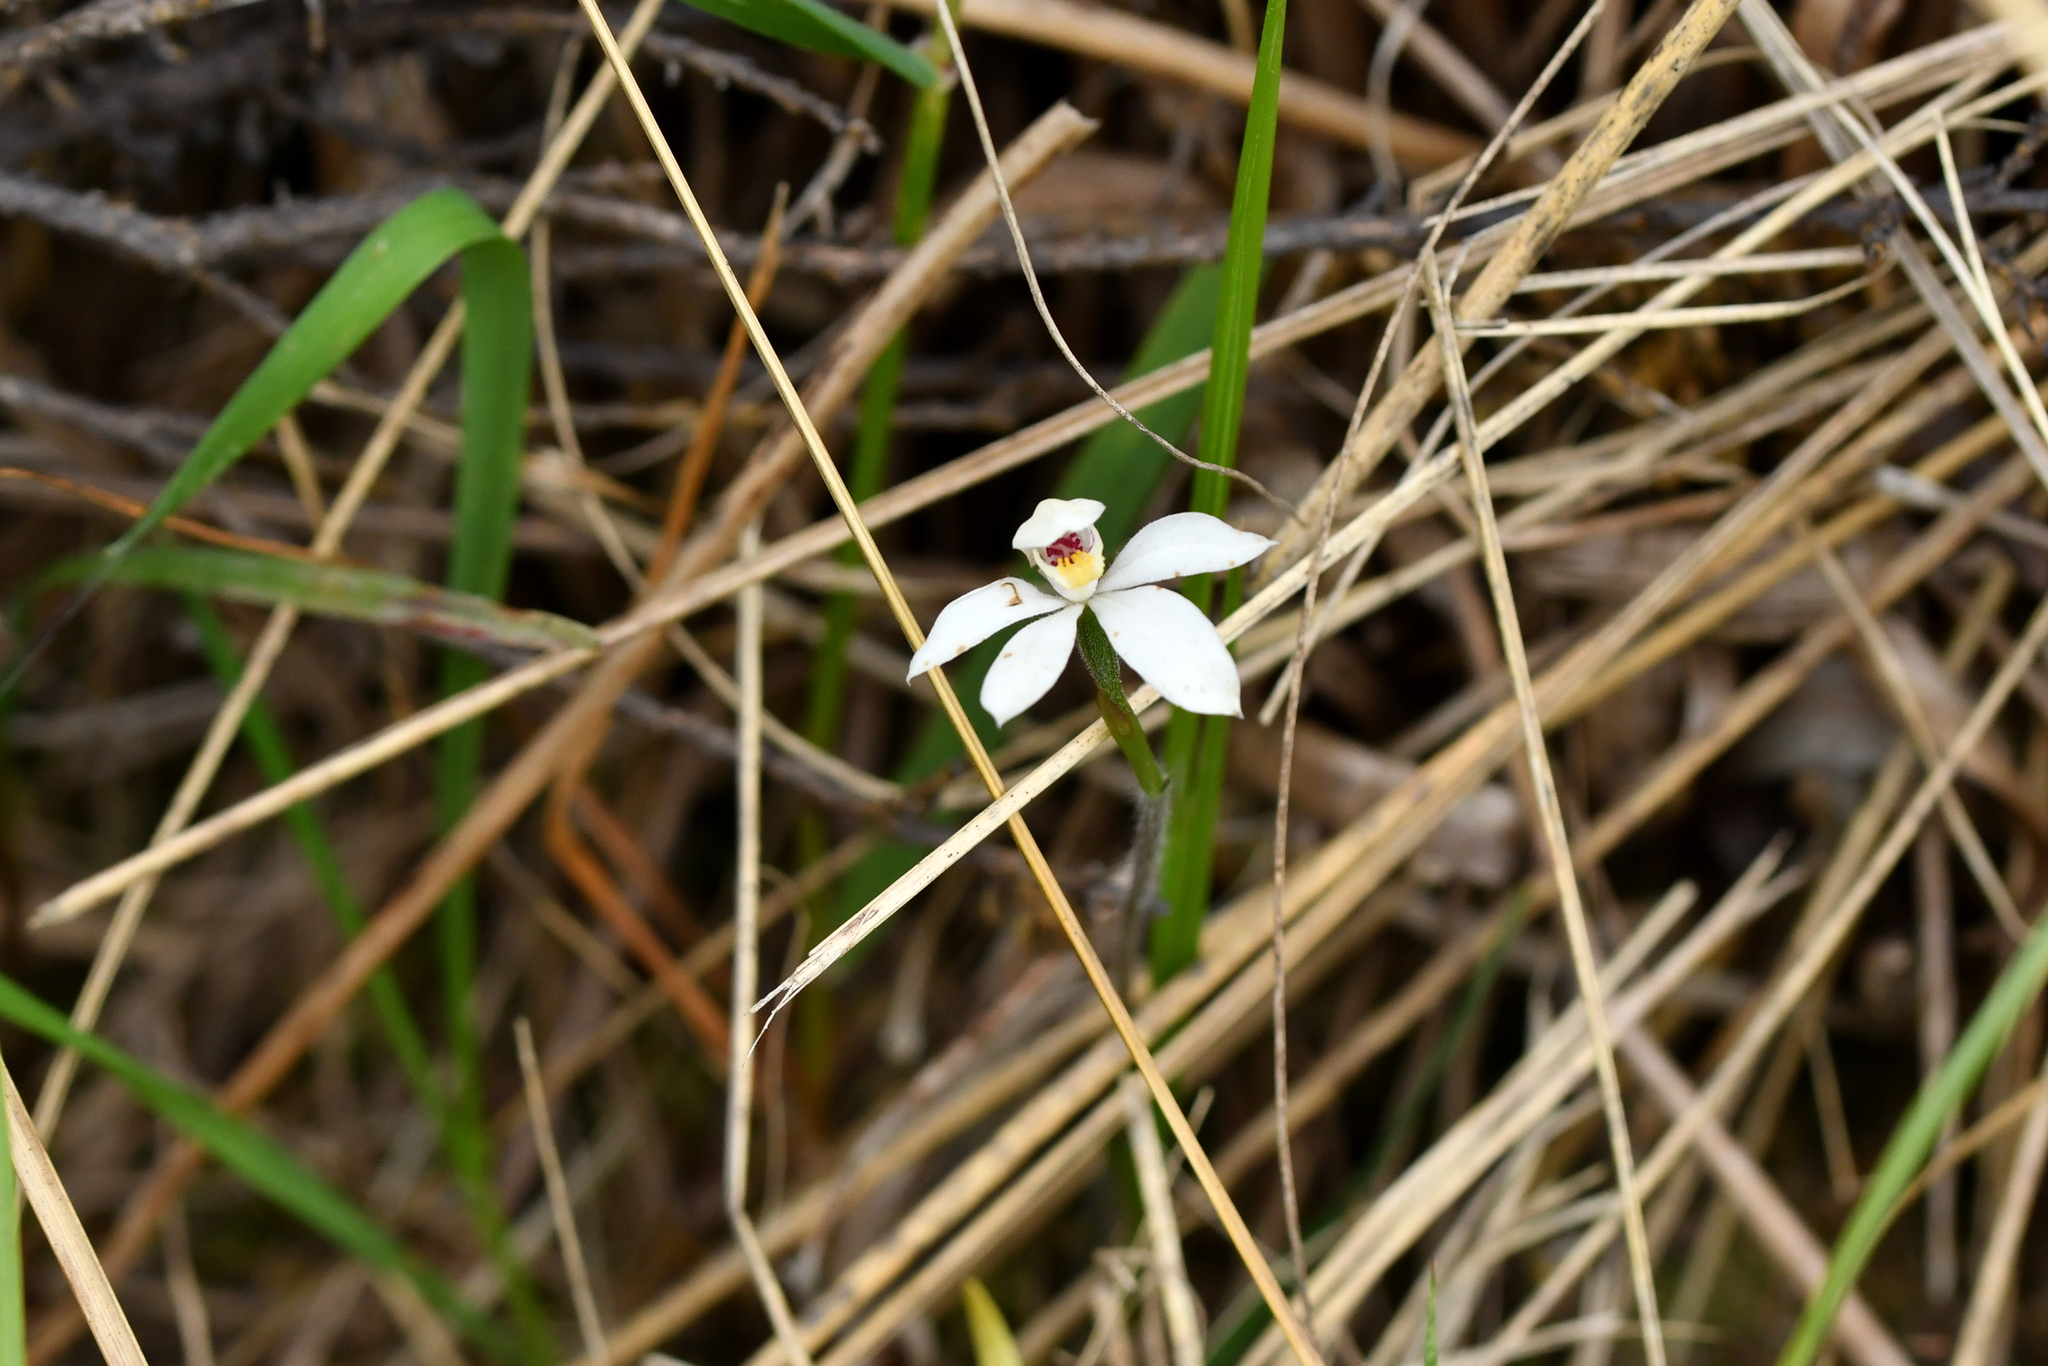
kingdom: Plantae
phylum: Tracheophyta
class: Liliopsida
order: Asparagales
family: Orchidaceae
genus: Caladenia
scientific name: Caladenia lyallii
